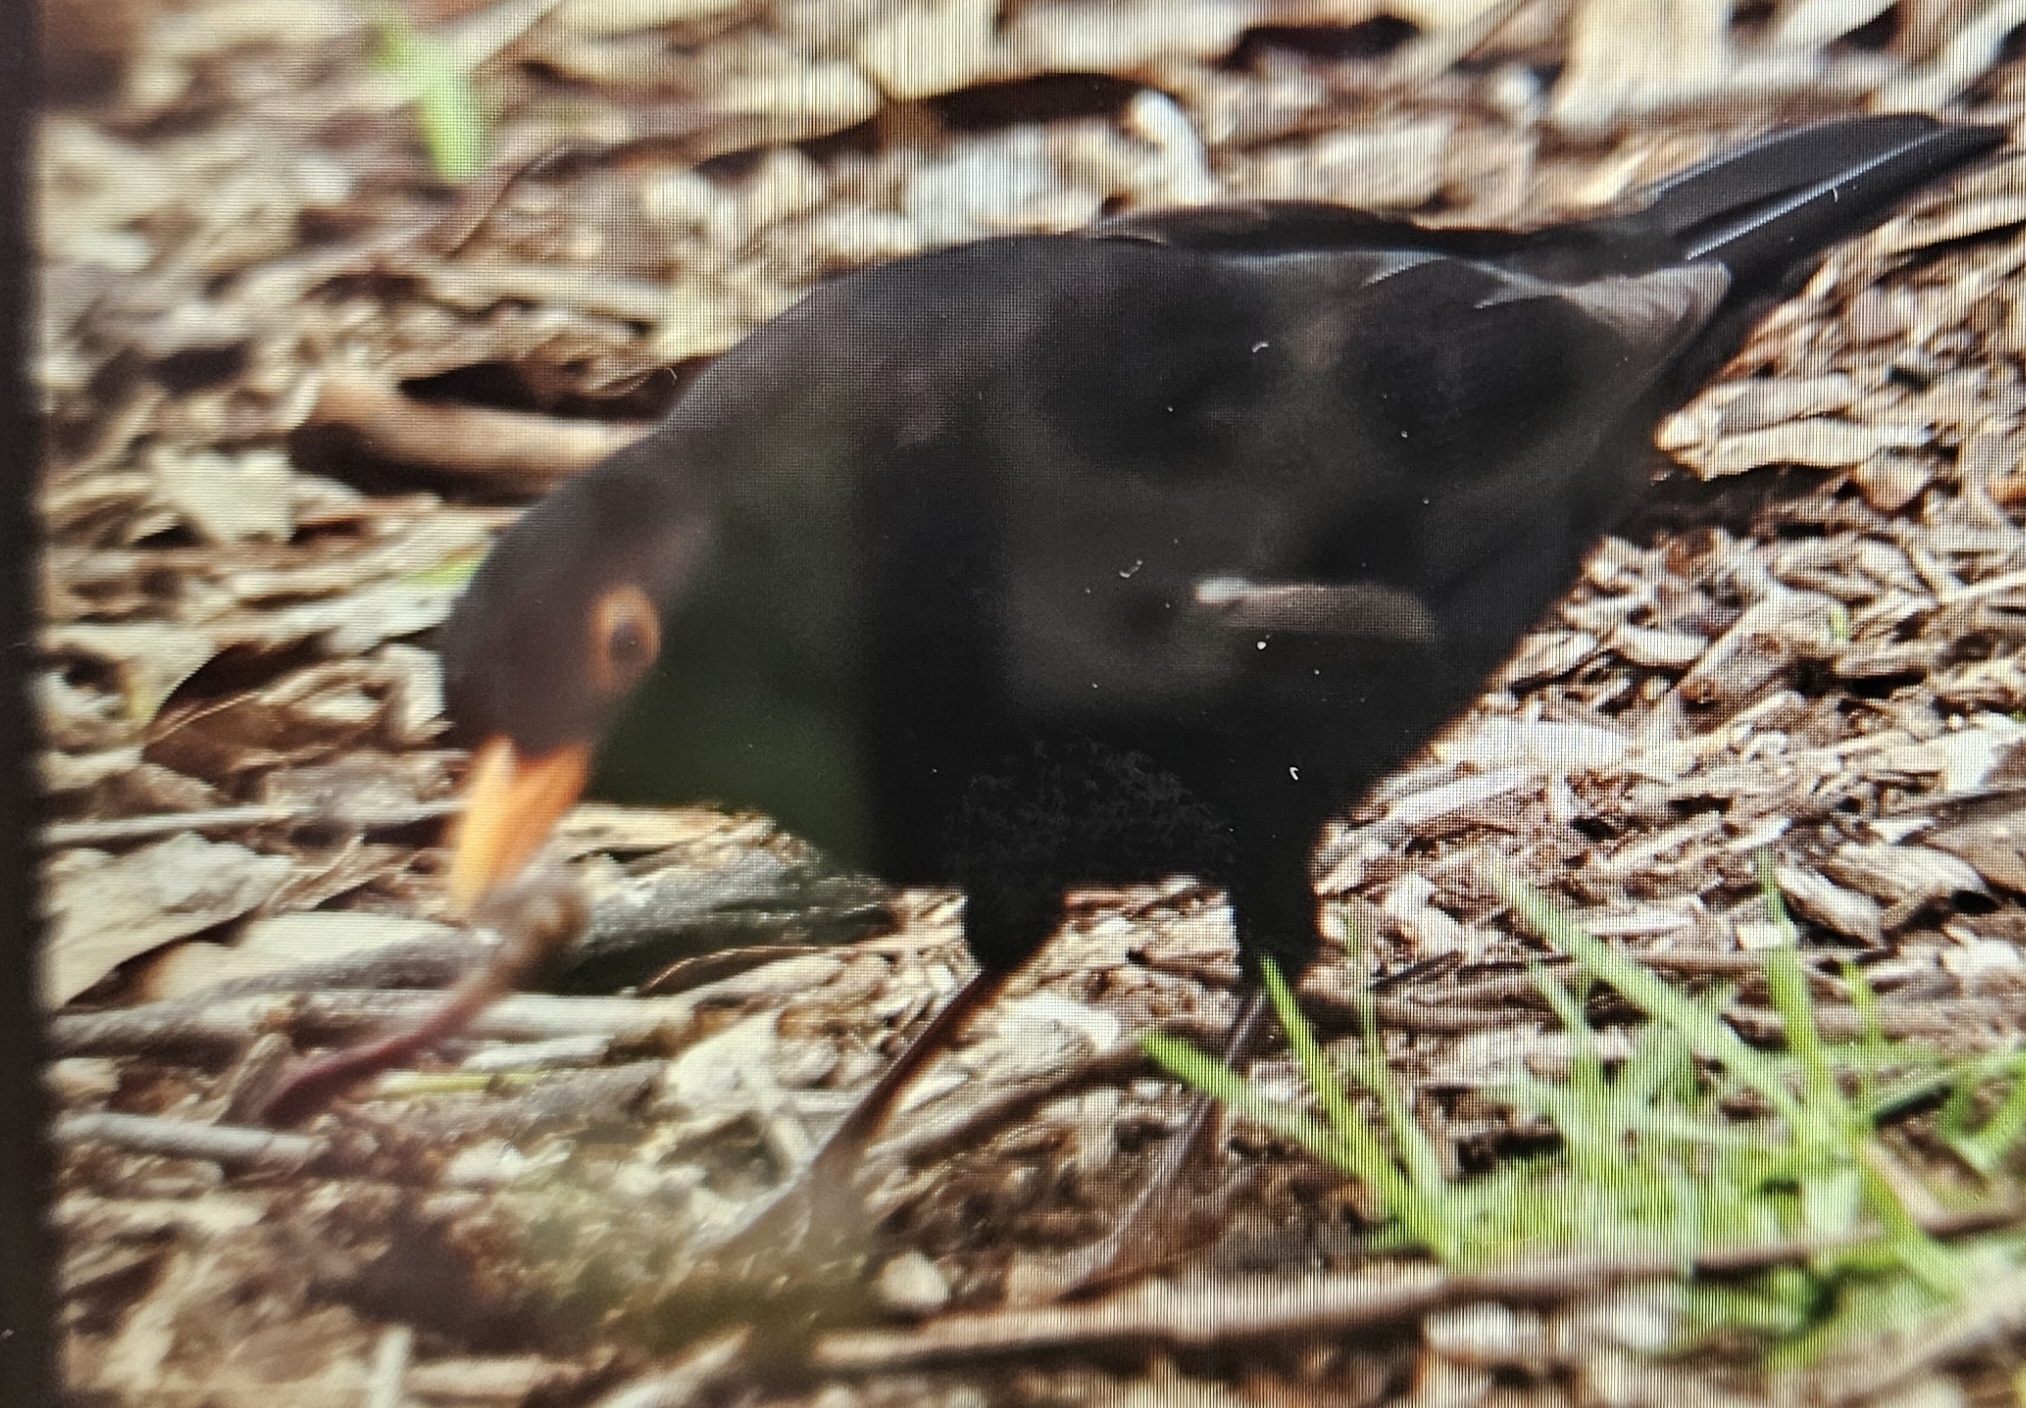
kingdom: Animalia
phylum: Chordata
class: Aves
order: Passeriformes
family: Turdidae
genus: Turdus
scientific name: Turdus merula
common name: Common blackbird
